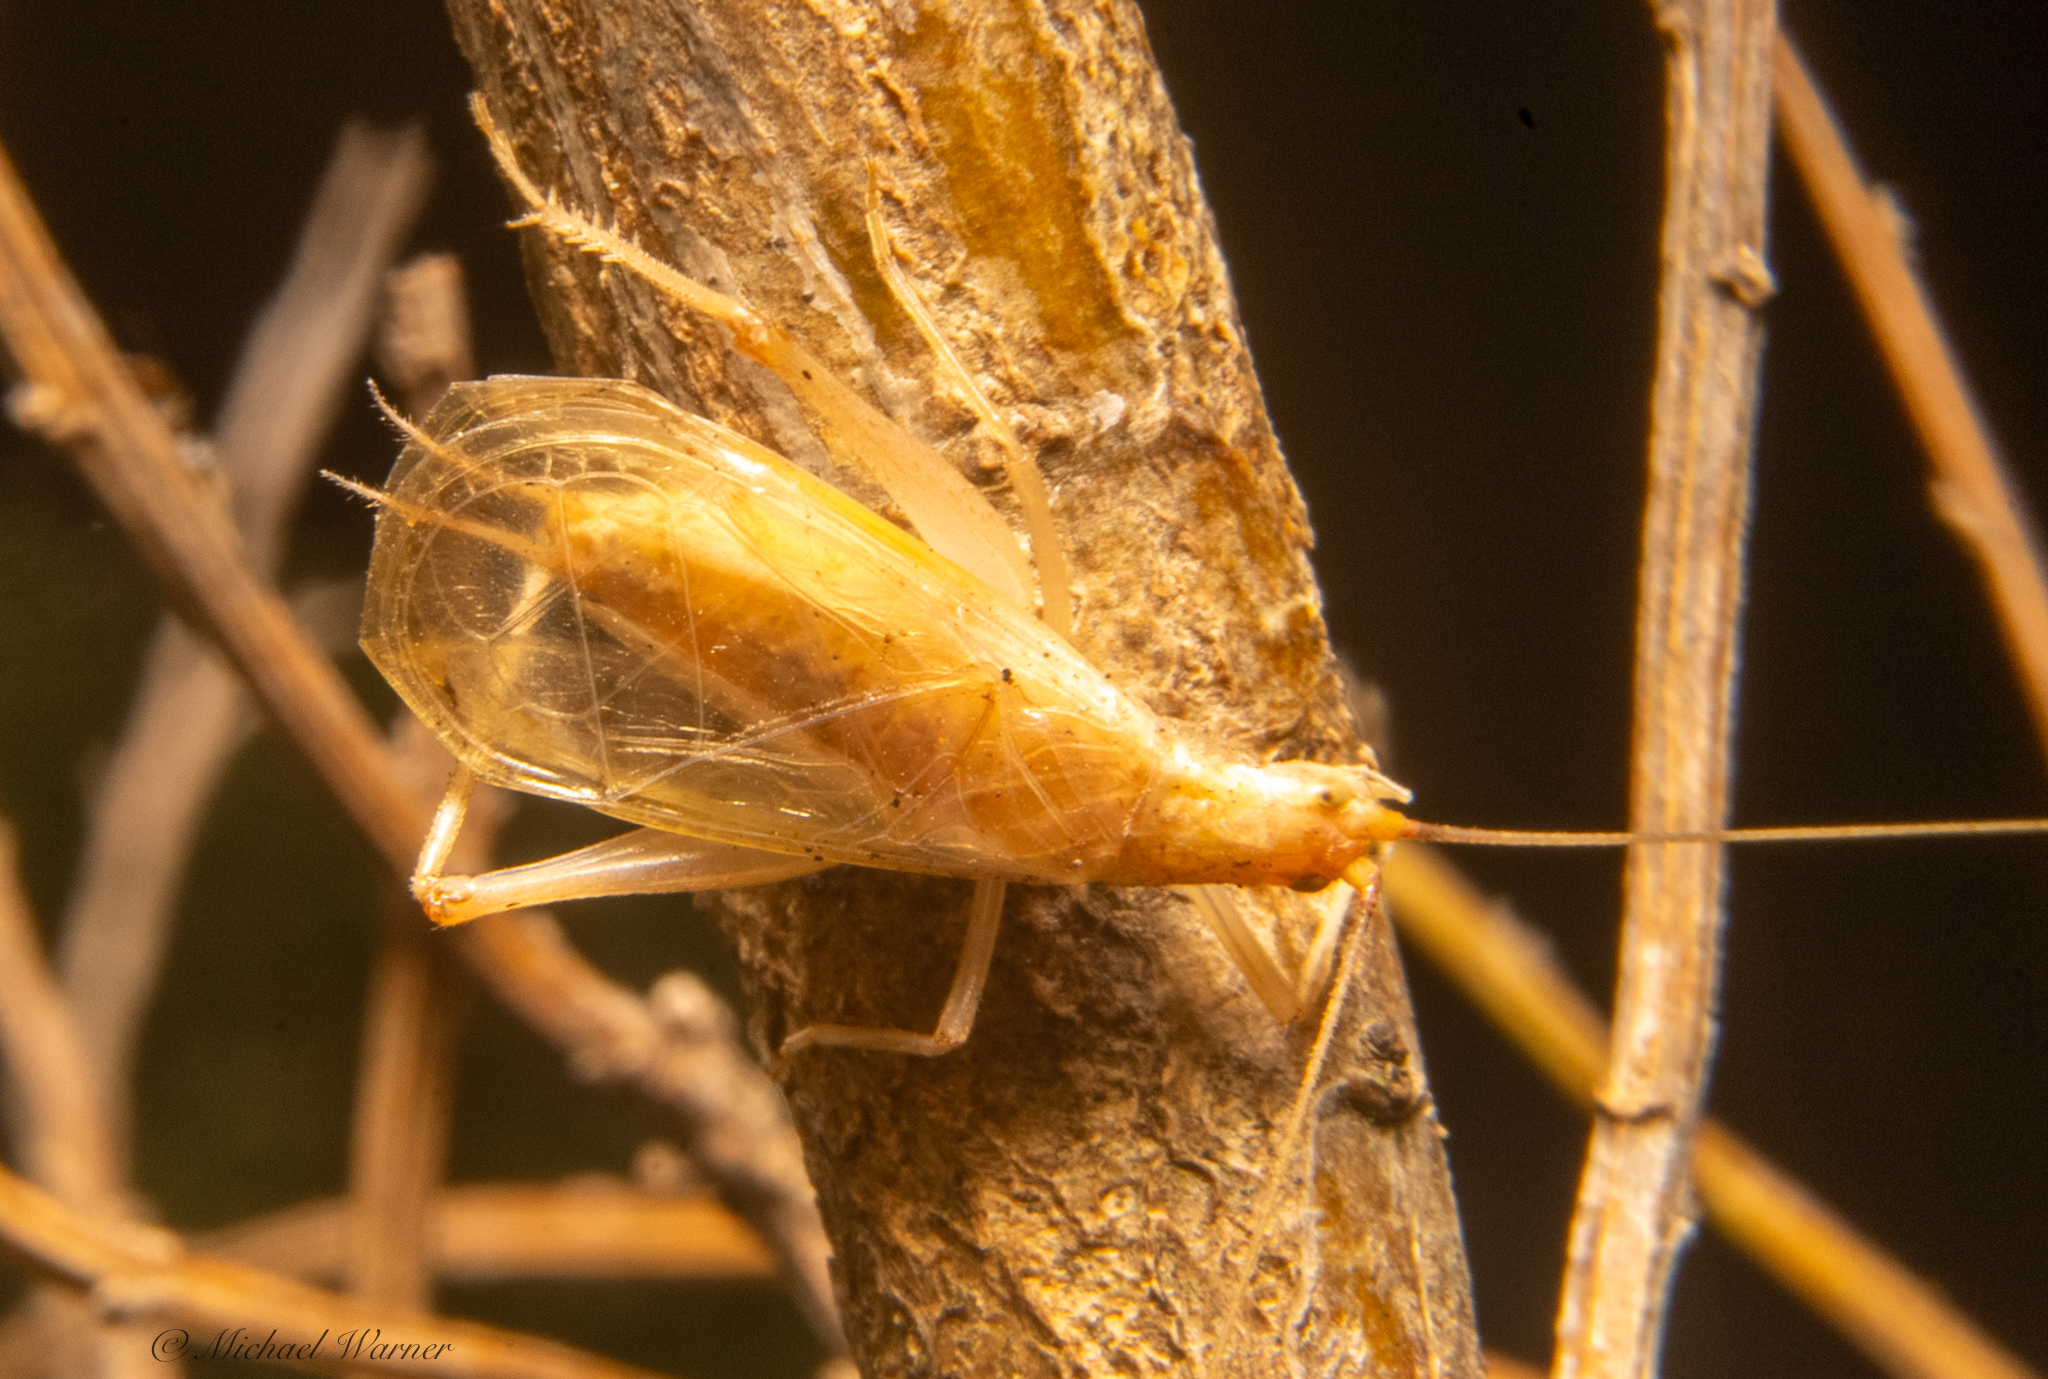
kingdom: Animalia
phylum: Arthropoda
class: Insecta
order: Orthoptera
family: Gryllidae
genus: Oecanthus
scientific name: Oecanthus californicus
